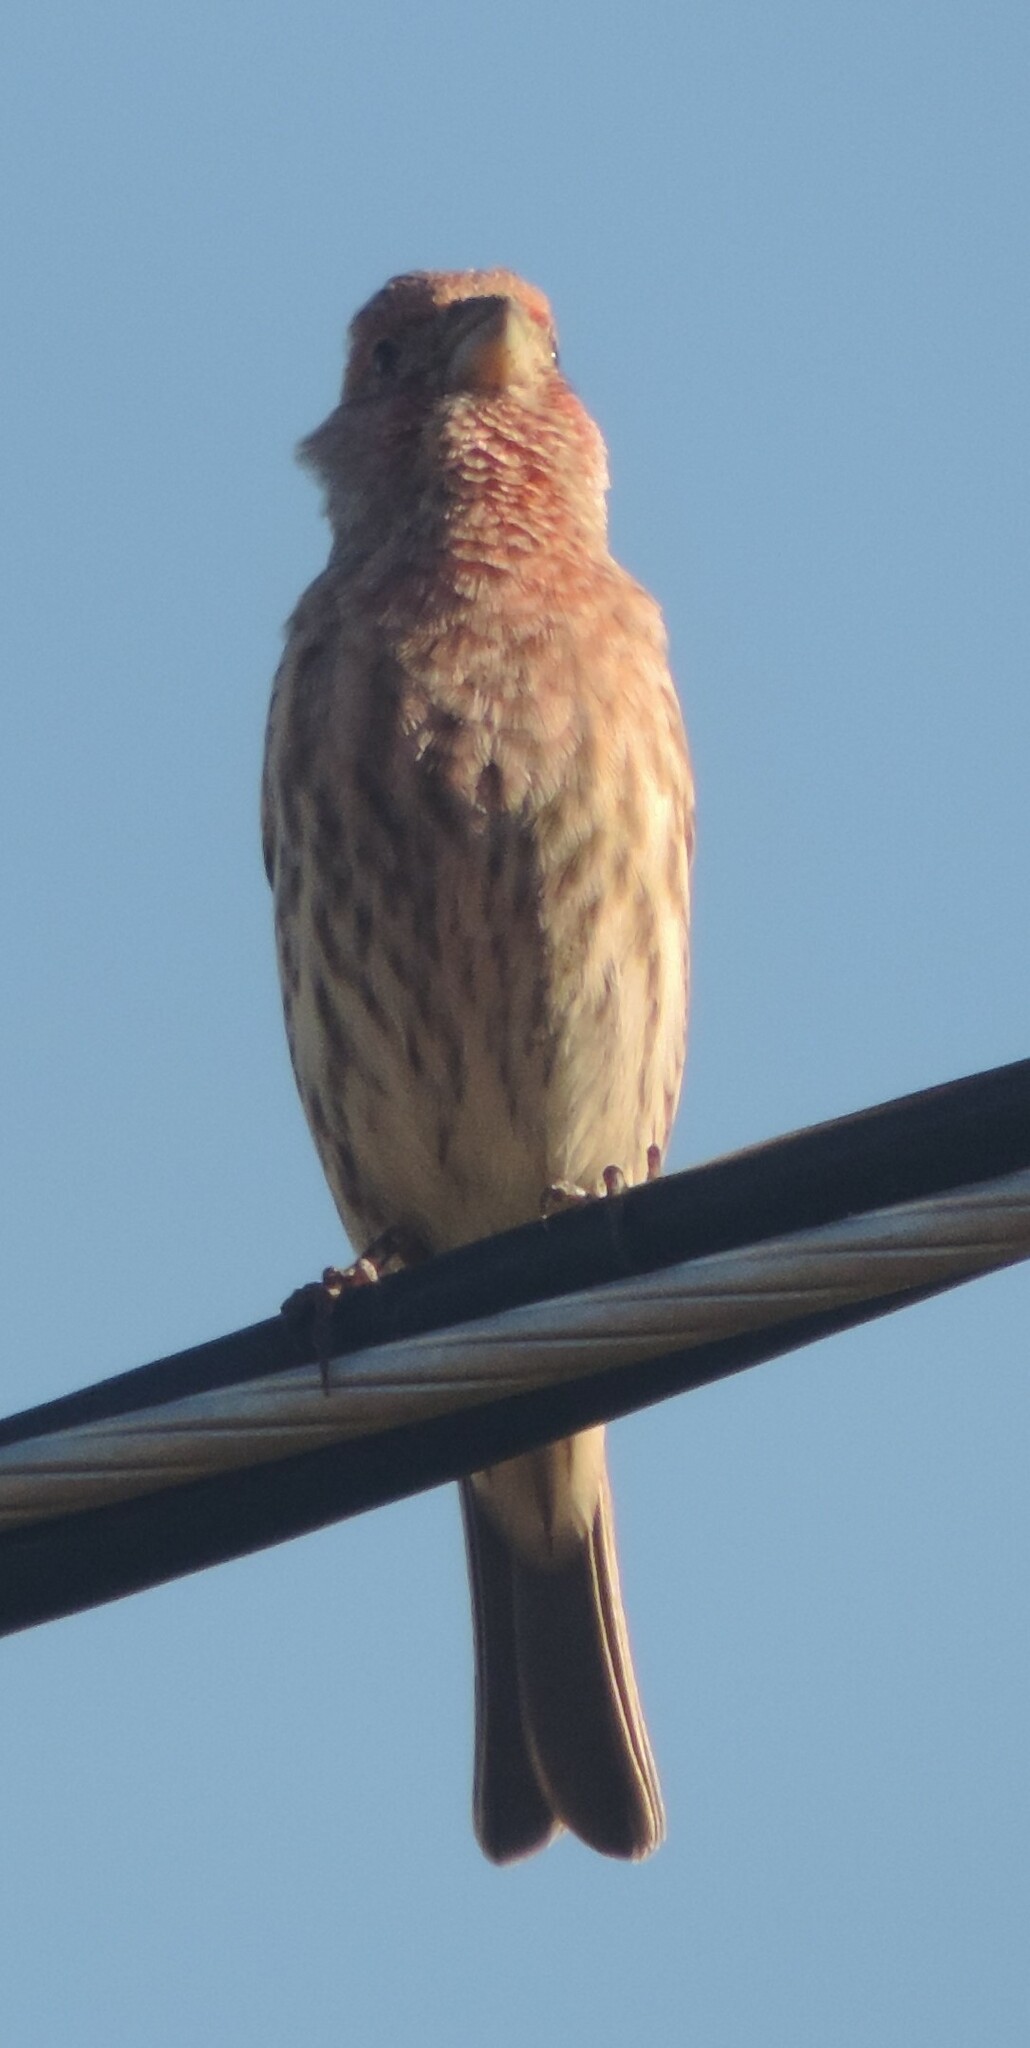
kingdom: Animalia
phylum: Chordata
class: Aves
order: Passeriformes
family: Fringillidae
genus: Haemorhous
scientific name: Haemorhous mexicanus
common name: House finch
